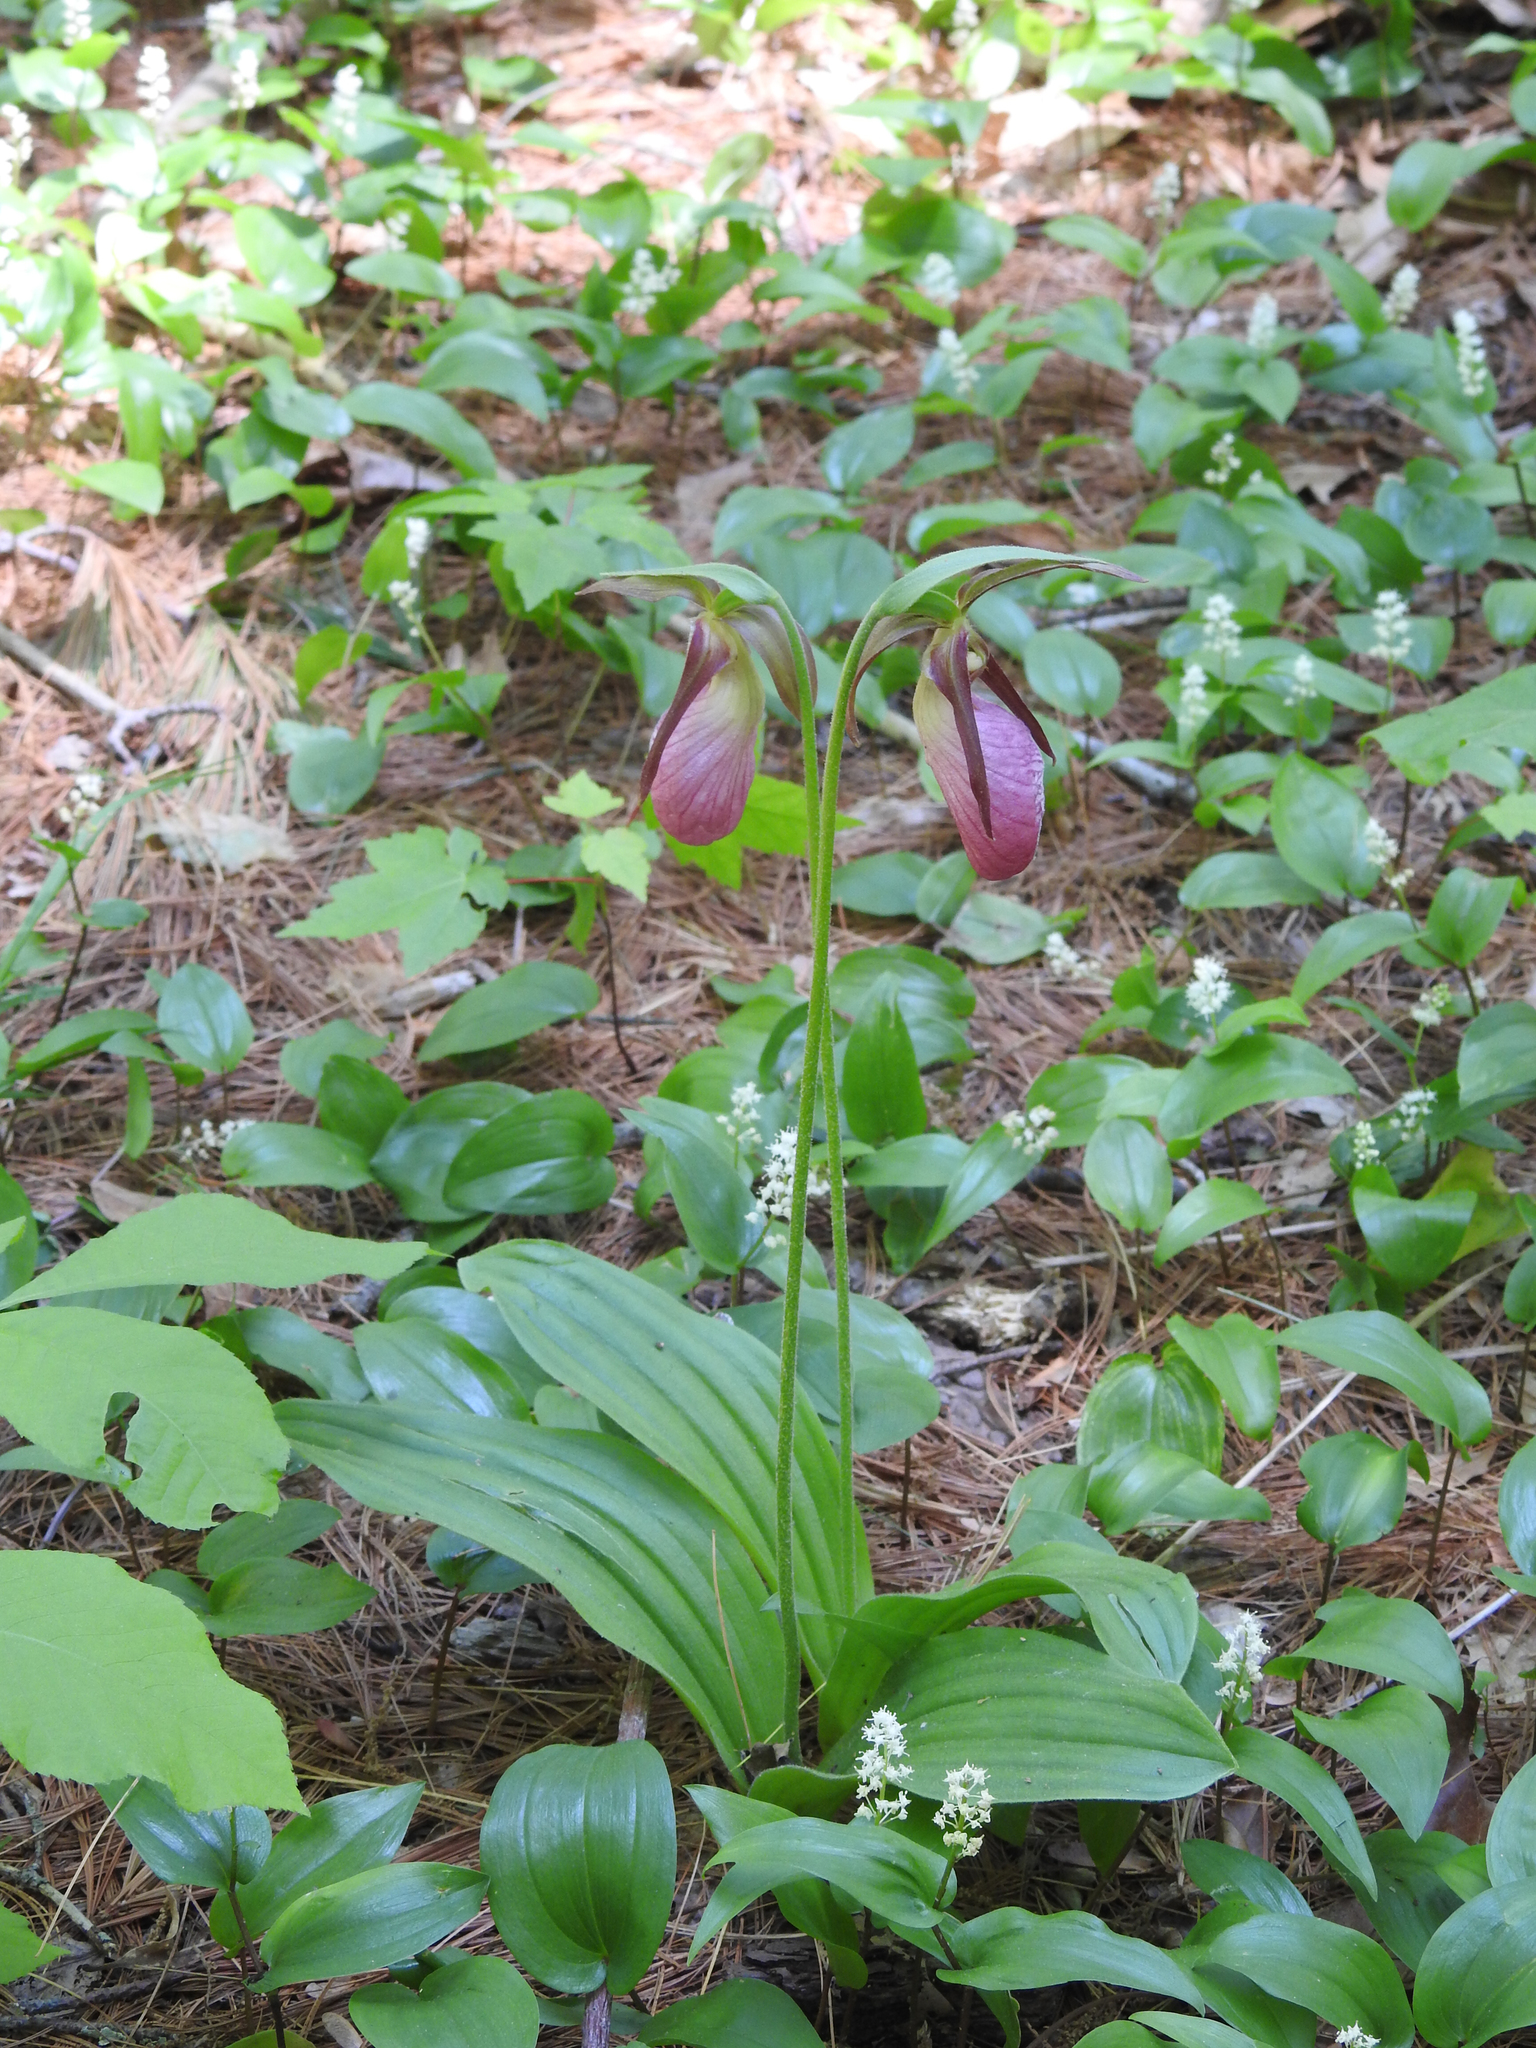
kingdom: Plantae
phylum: Tracheophyta
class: Liliopsida
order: Asparagales
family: Orchidaceae
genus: Cypripedium
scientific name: Cypripedium acaule
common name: Pink lady's-slipper
